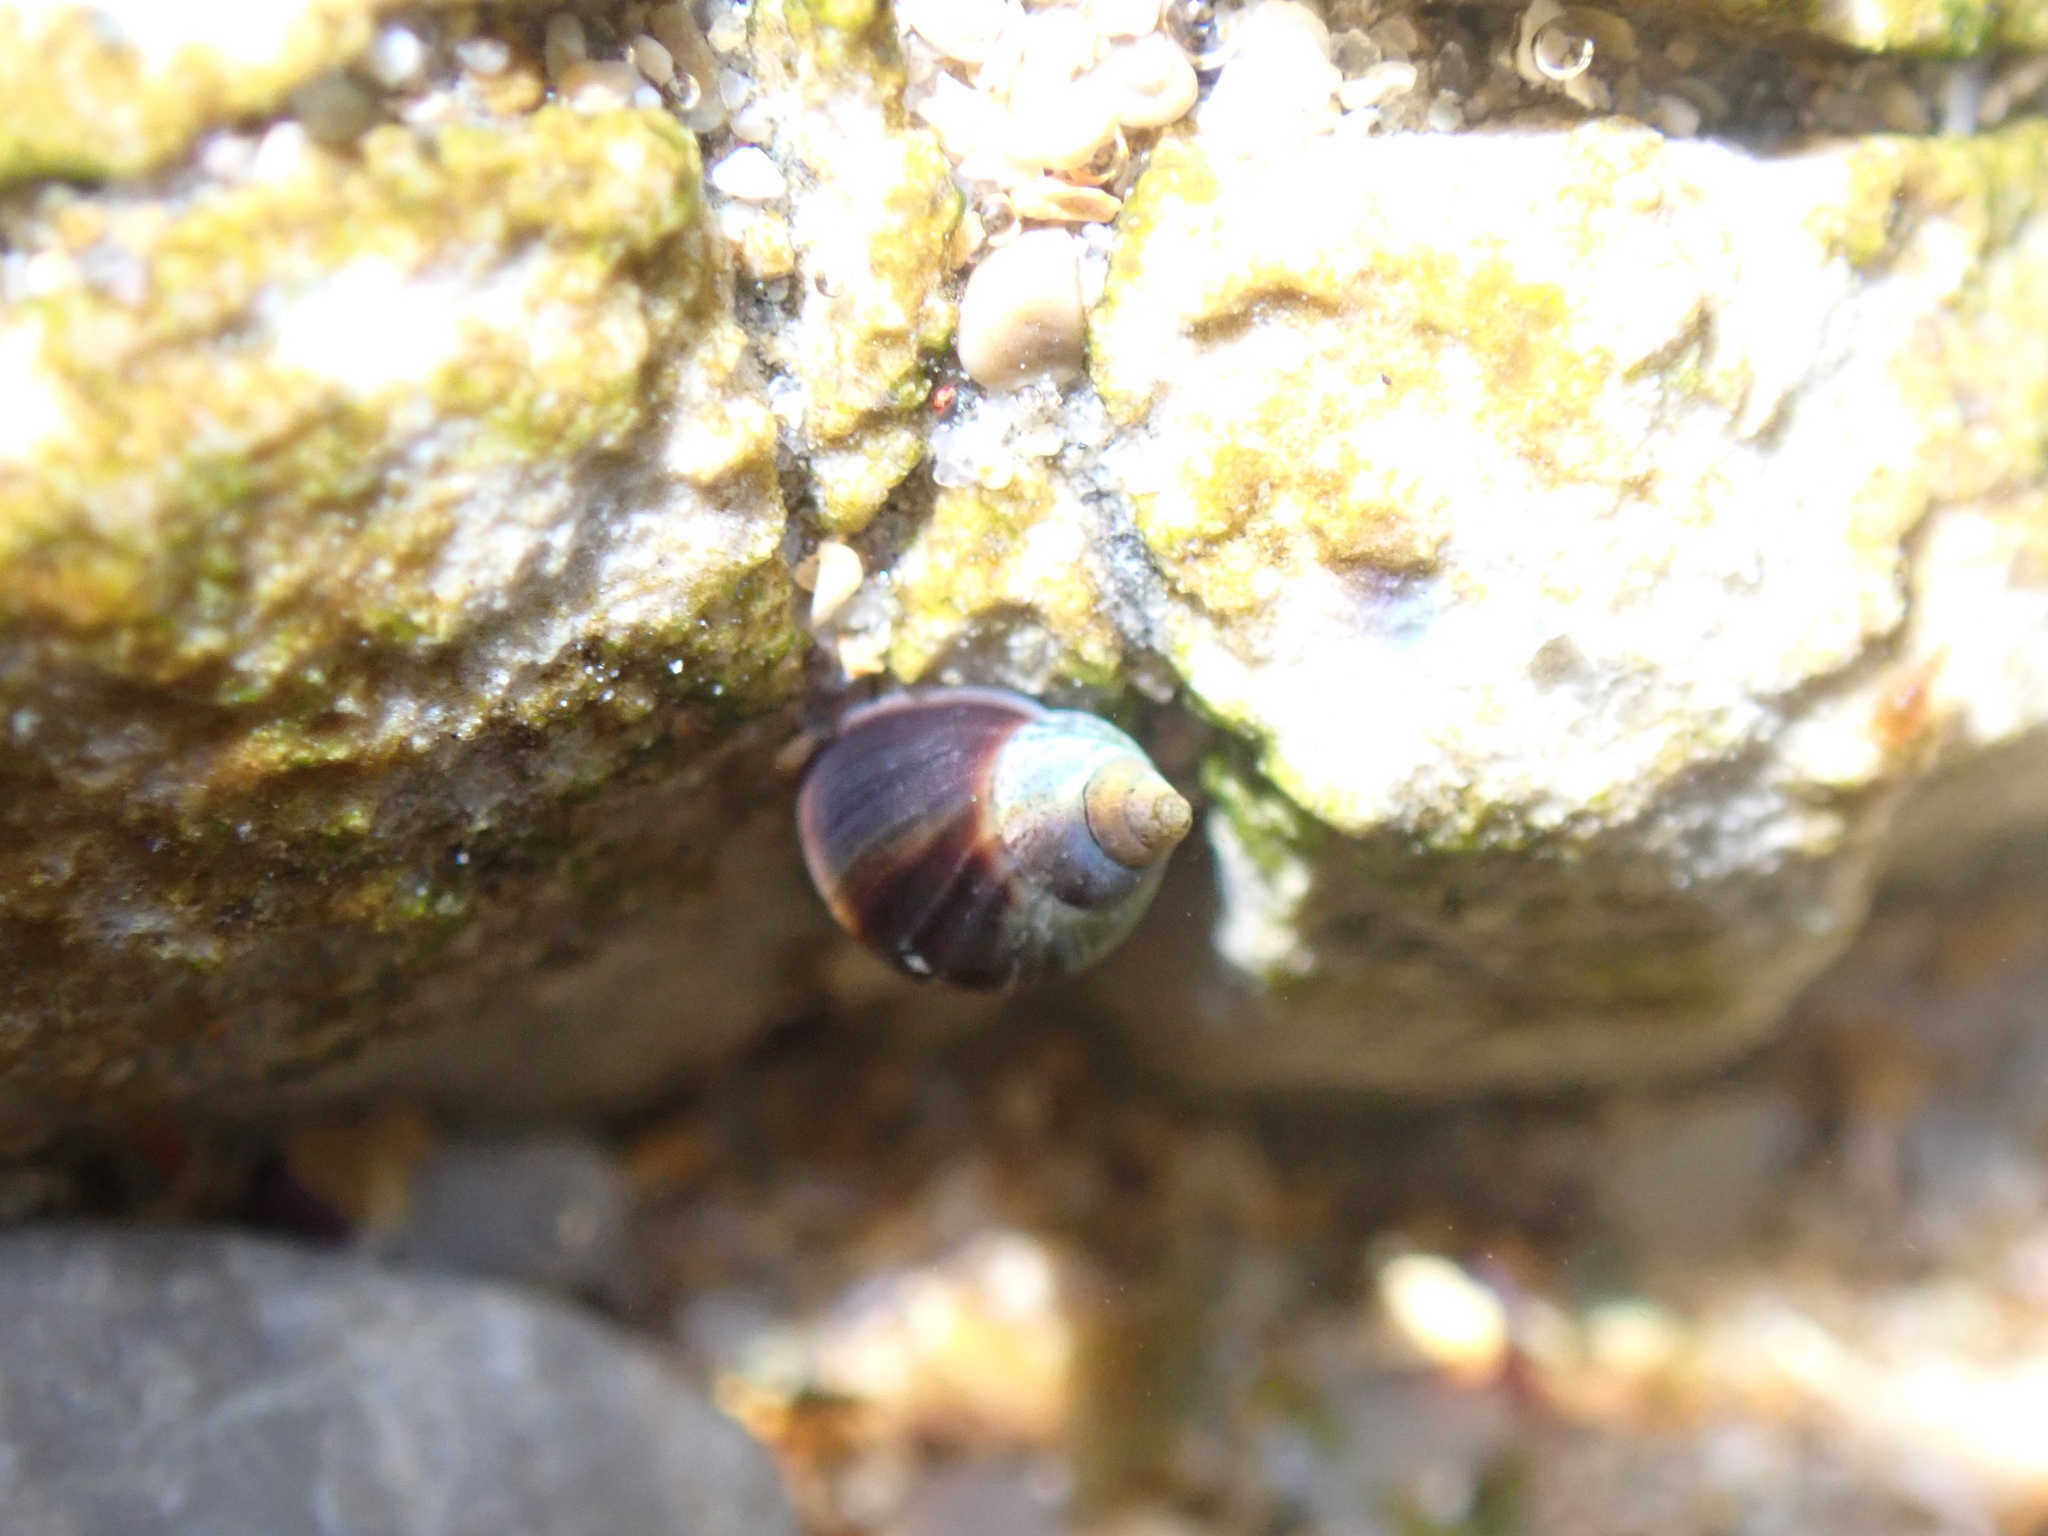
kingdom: Animalia
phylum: Mollusca
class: Gastropoda
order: Littorinimorpha
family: Littorinidae
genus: Melarhaphe
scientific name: Melarhaphe neritoides
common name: Small periwinkle
